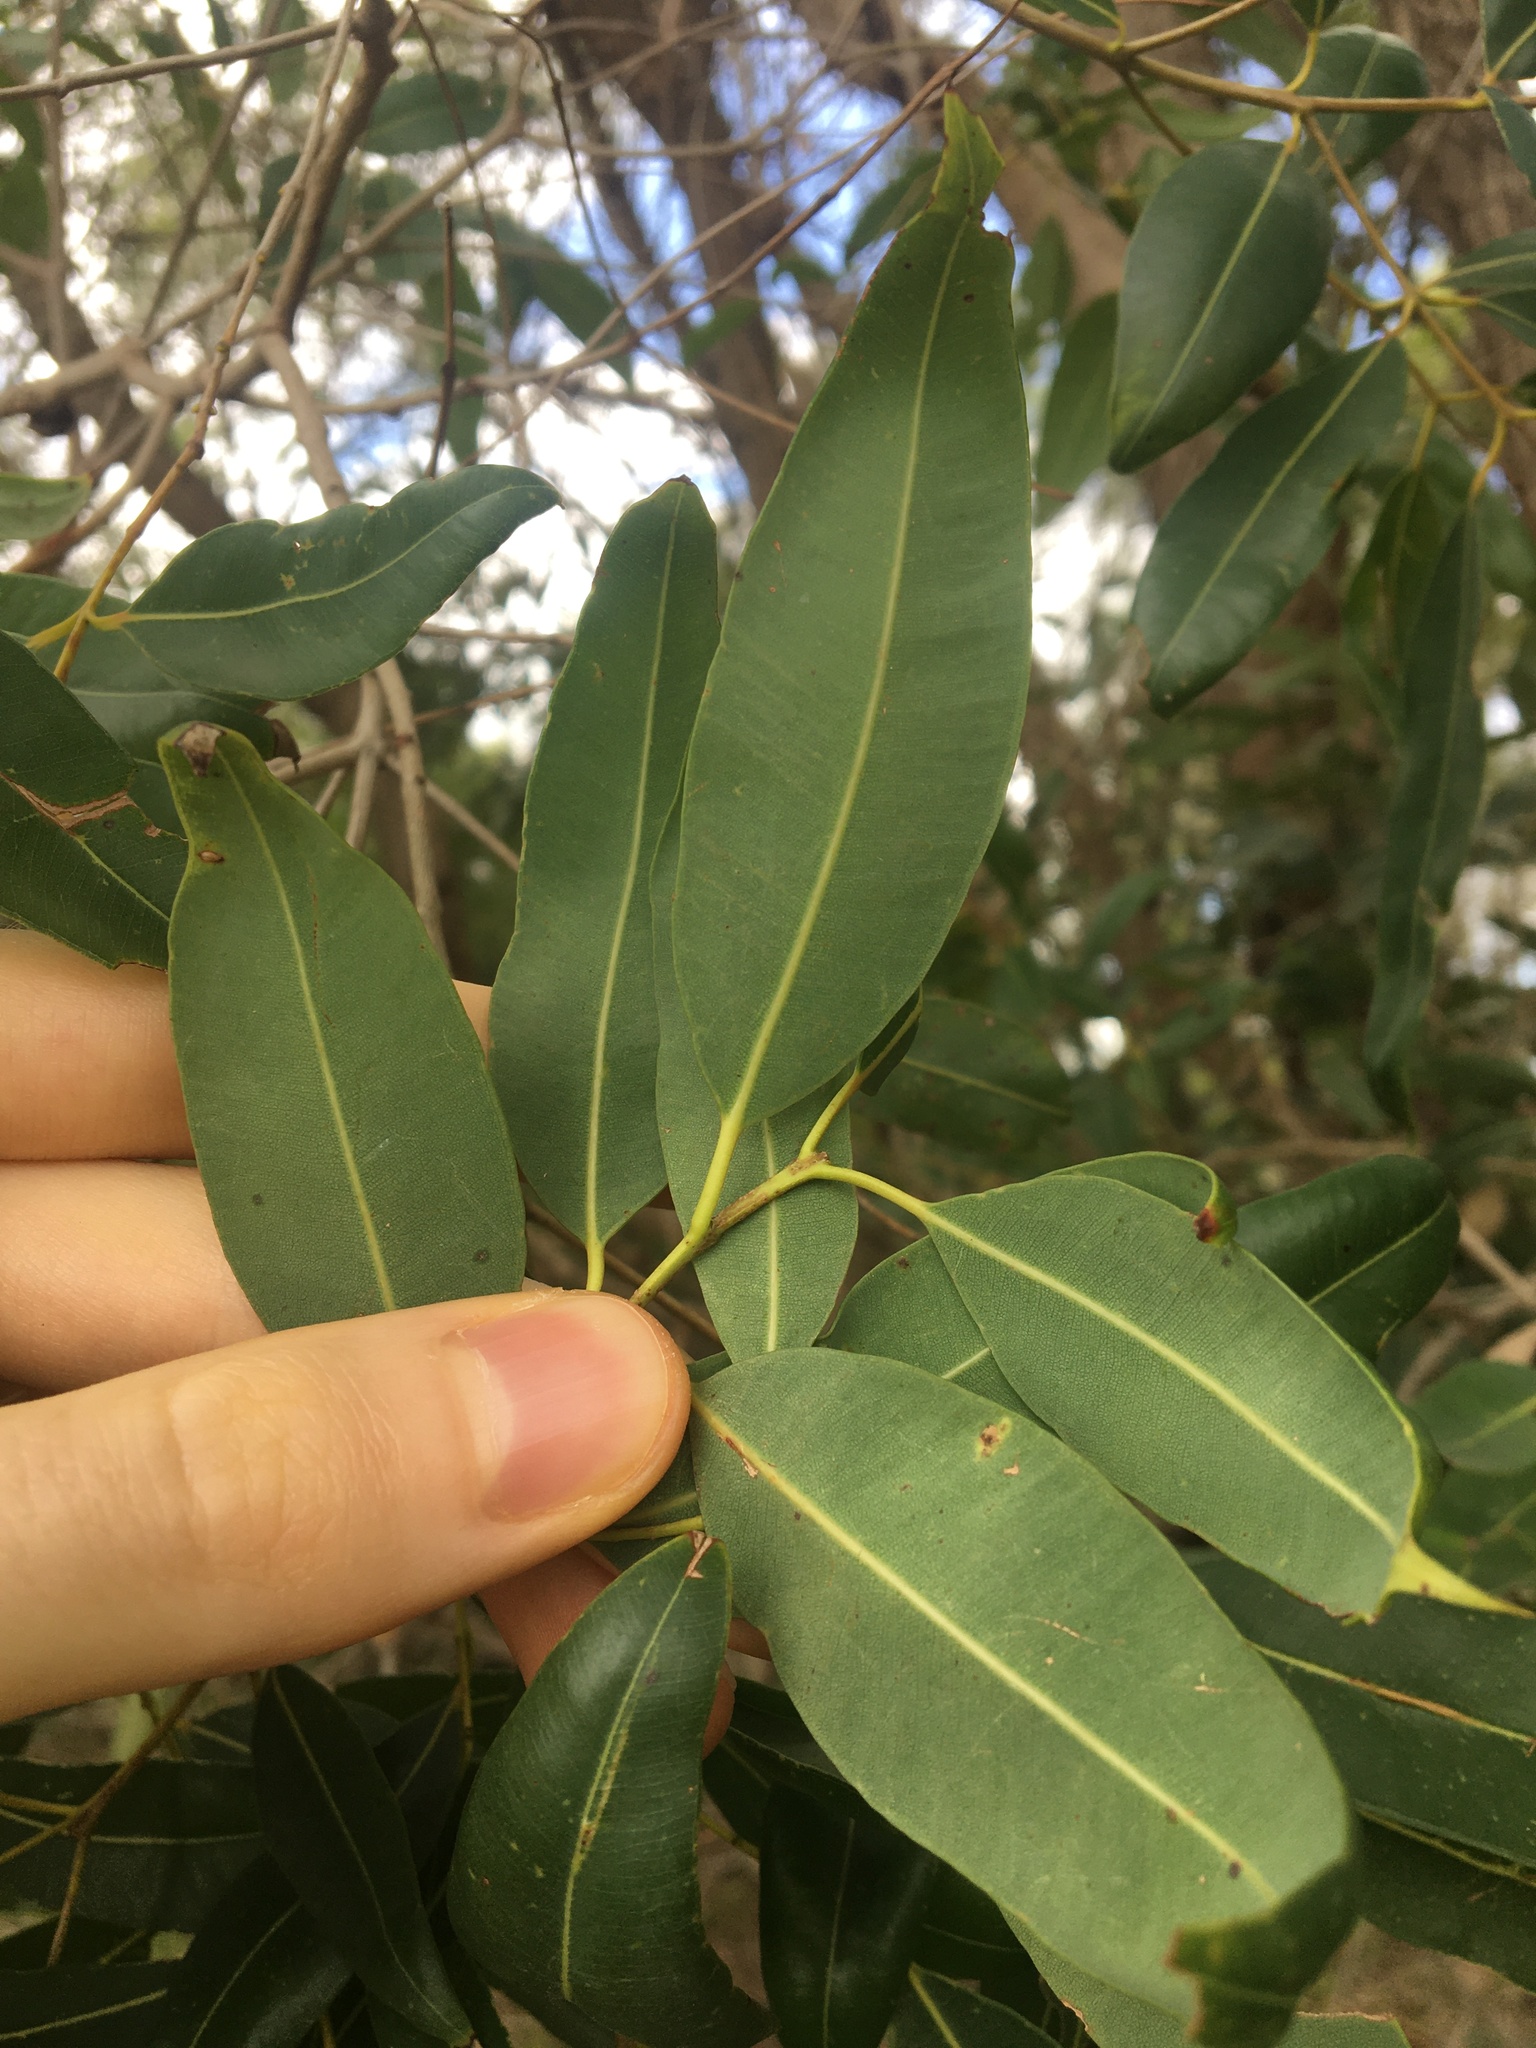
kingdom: Plantae
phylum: Tracheophyta
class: Magnoliopsida
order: Myrtales
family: Myrtaceae
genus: Angophora
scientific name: Angophora floribunda
